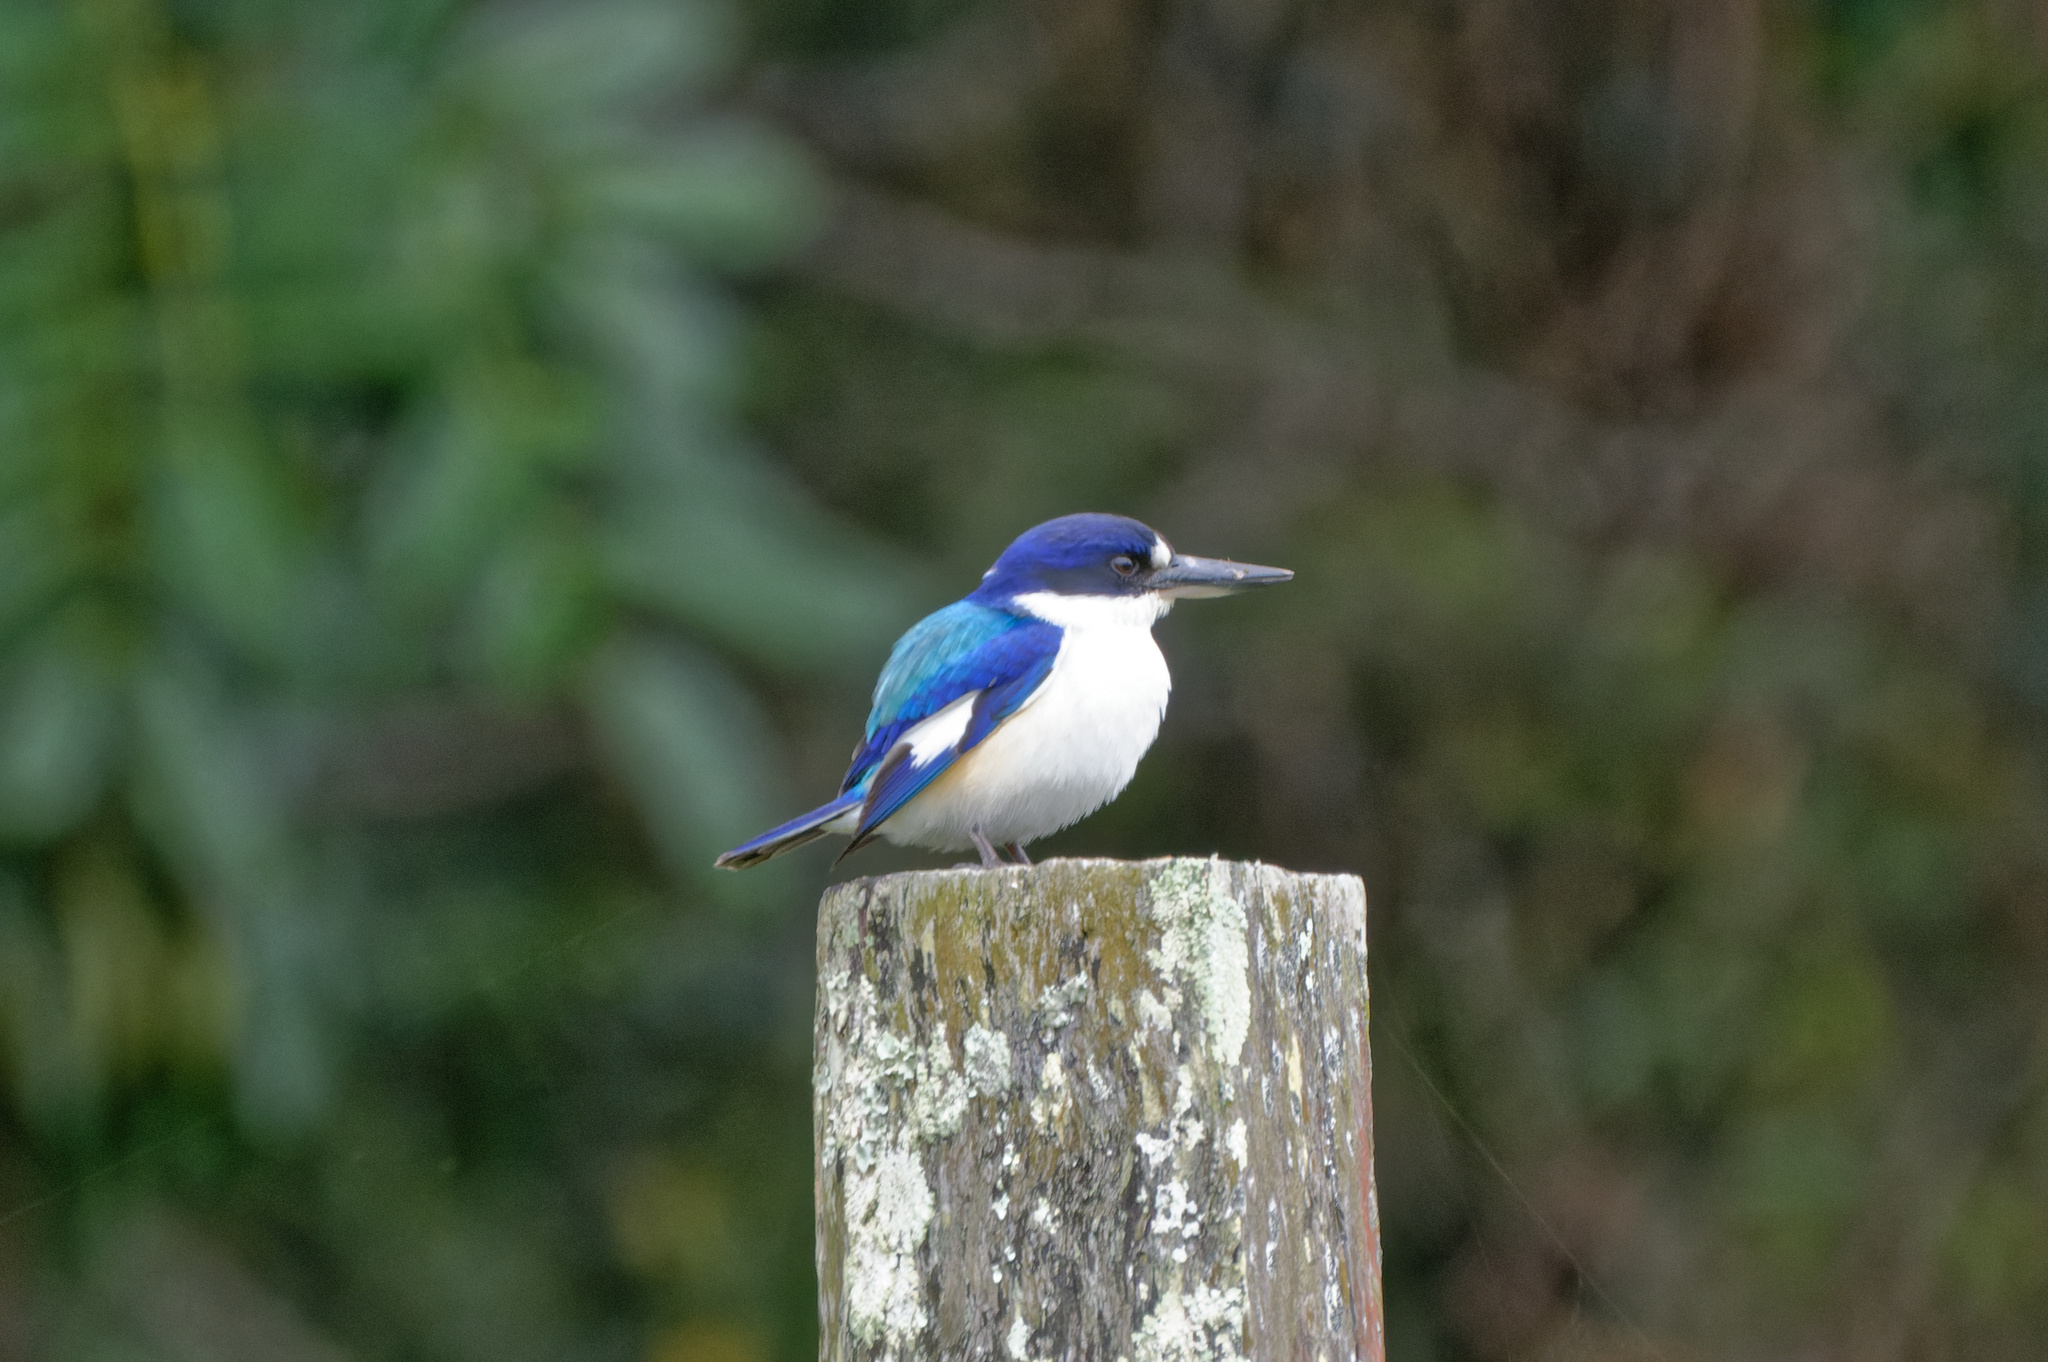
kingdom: Animalia
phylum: Chordata
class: Aves
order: Coraciiformes
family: Alcedinidae
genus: Todiramphus
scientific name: Todiramphus macleayii
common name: Forest kingfisher
